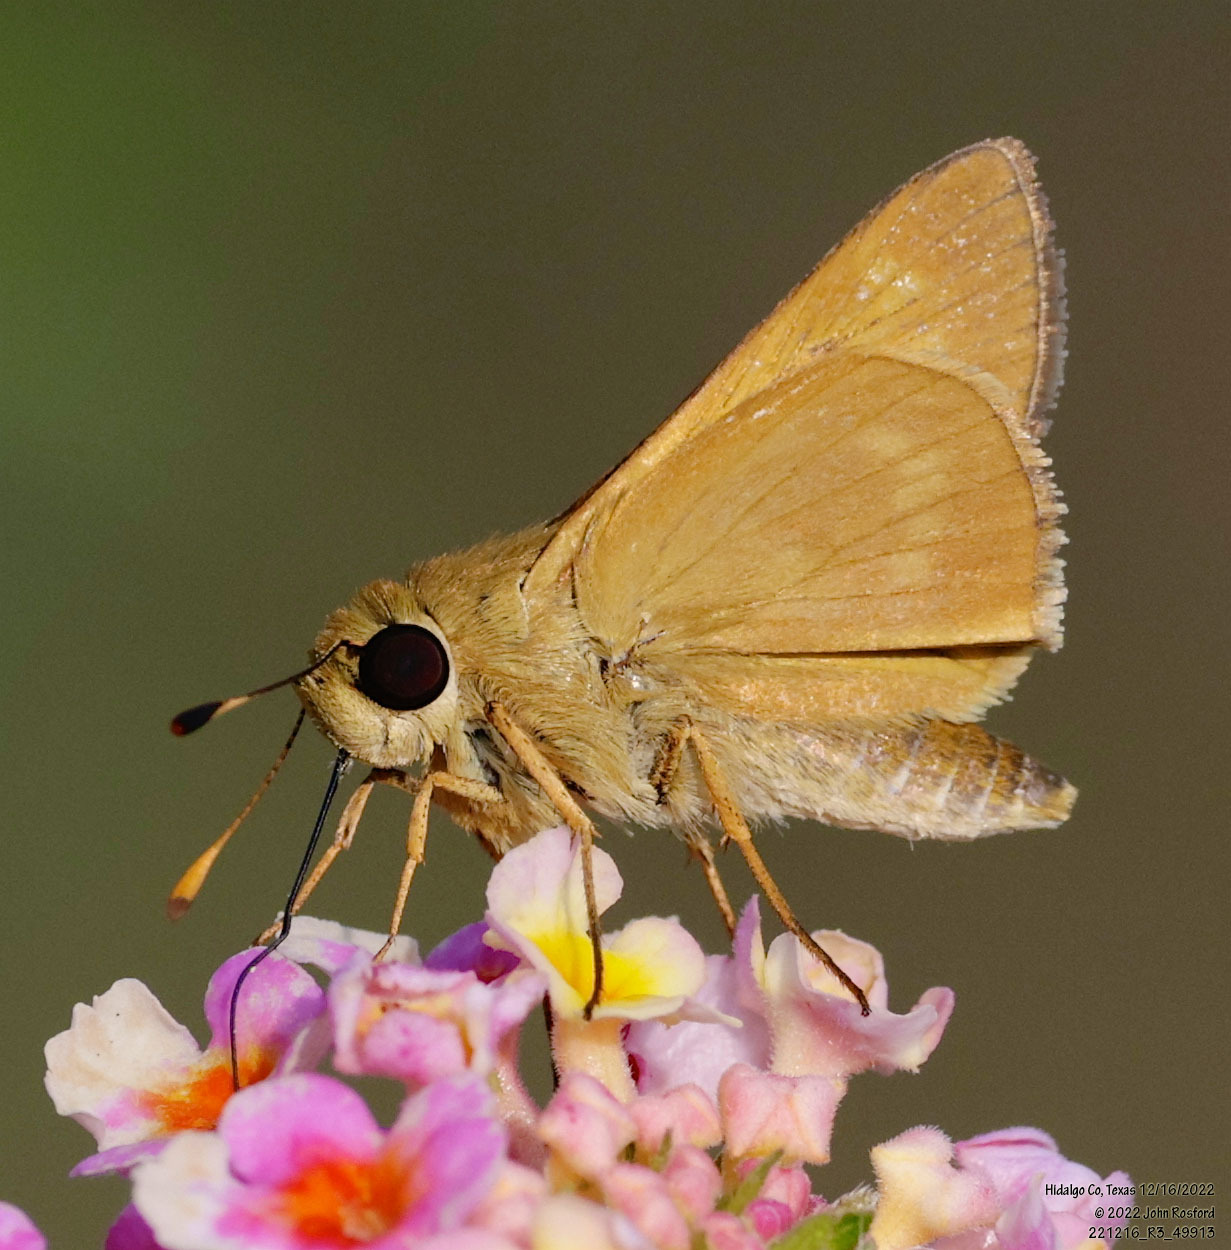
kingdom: Animalia
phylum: Arthropoda
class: Insecta
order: Lepidoptera
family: Hesperiidae
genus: Mellana
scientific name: Mellana eulogius
